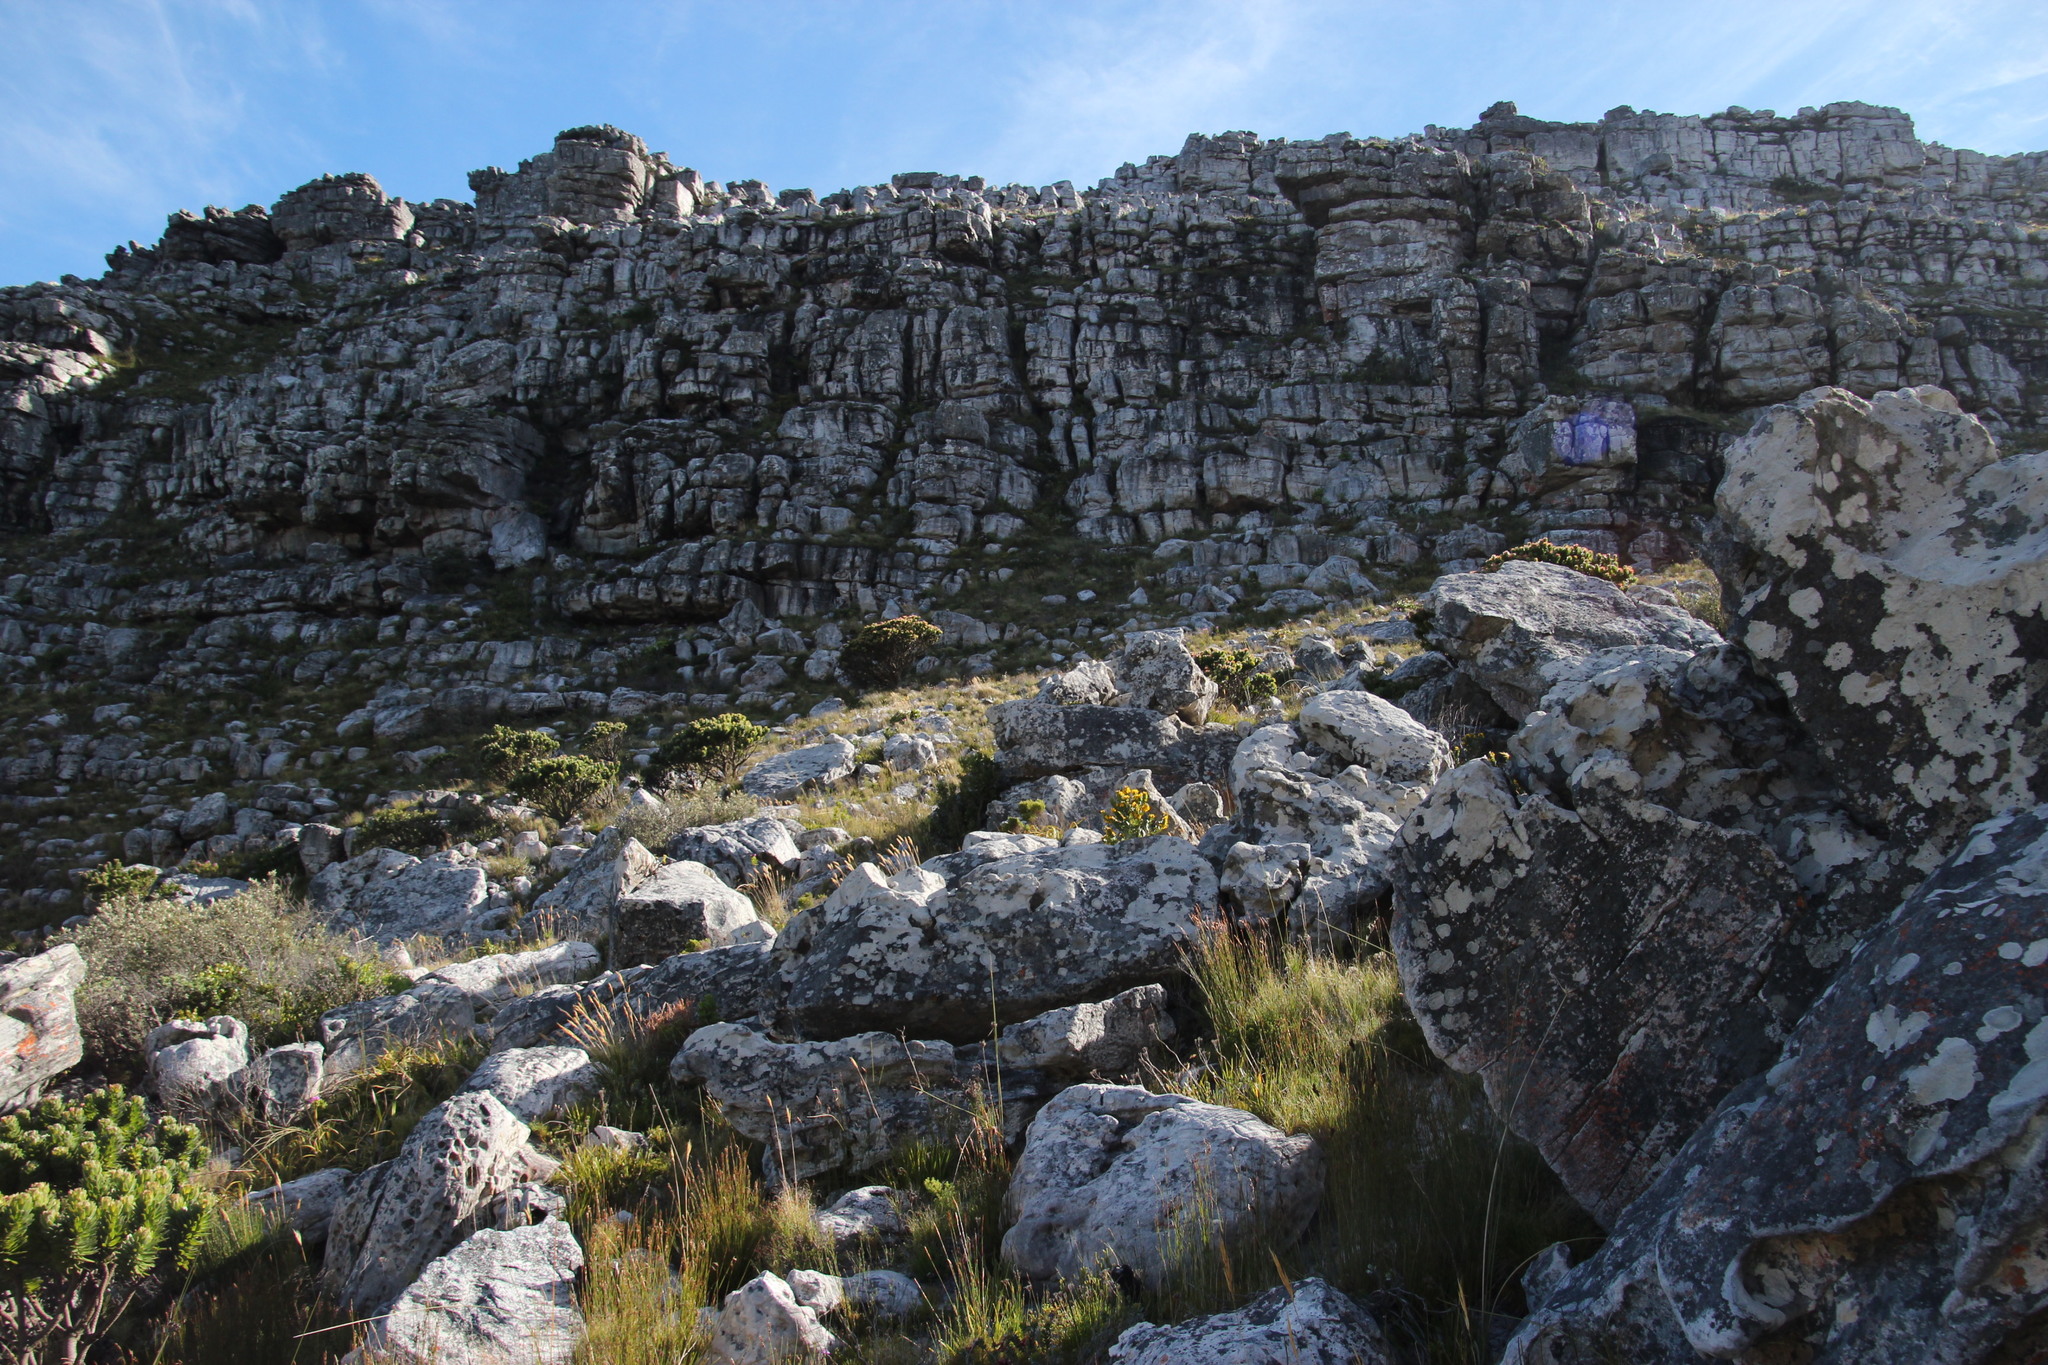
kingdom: Plantae
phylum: Tracheophyta
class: Magnoliopsida
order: Fabales
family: Fabaceae
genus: Rafnia
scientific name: Rafnia triflora
